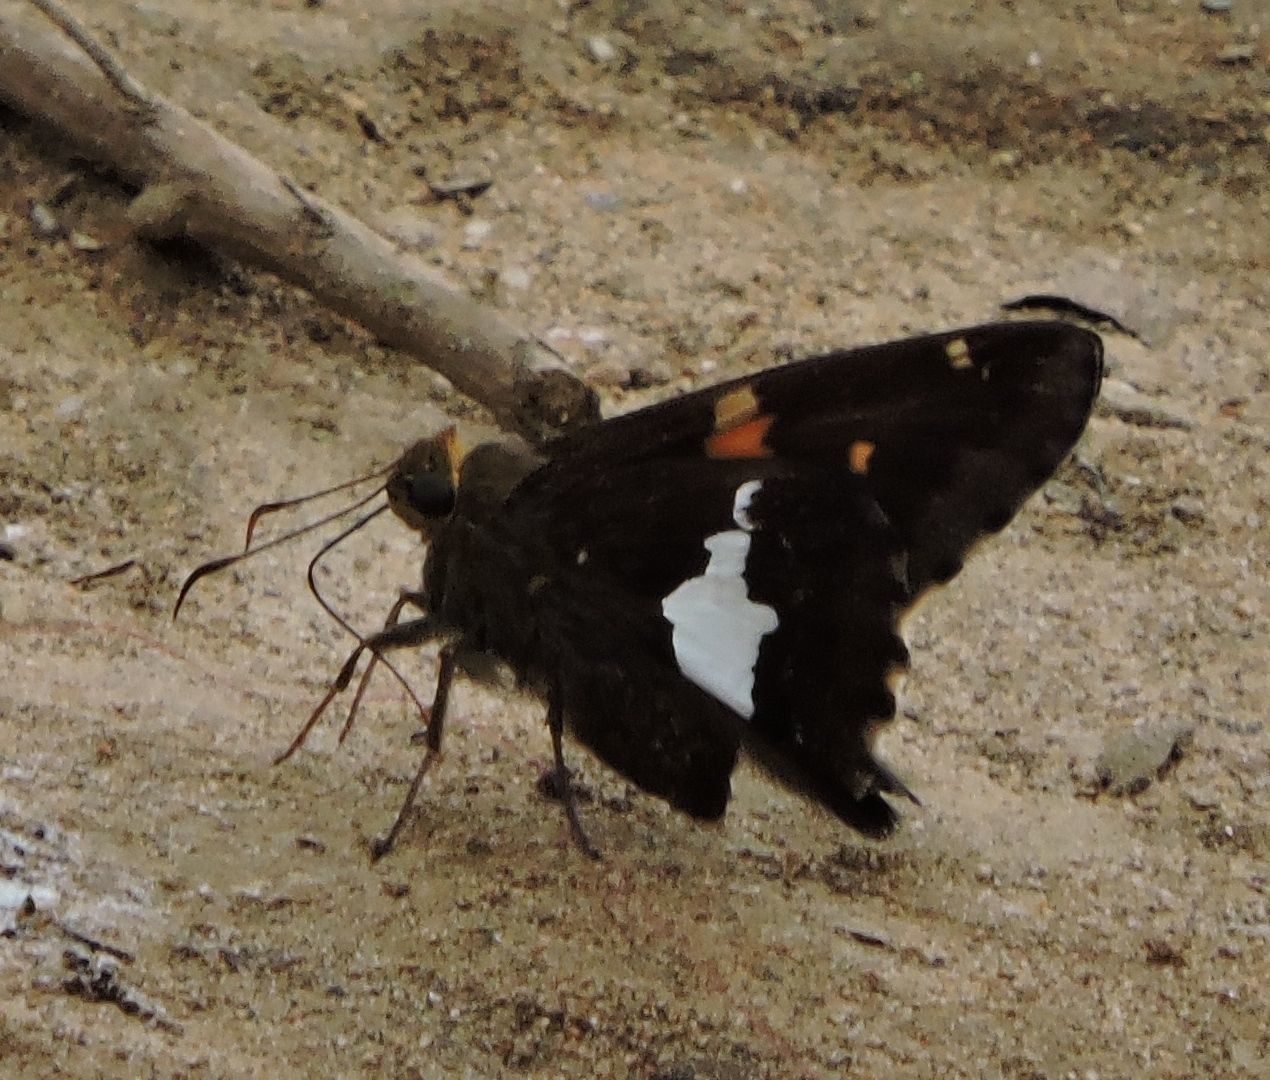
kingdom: Animalia
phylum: Arthropoda
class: Insecta
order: Lepidoptera
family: Hesperiidae
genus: Epargyreus
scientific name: Epargyreus clarus
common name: Silver-spotted skipper
